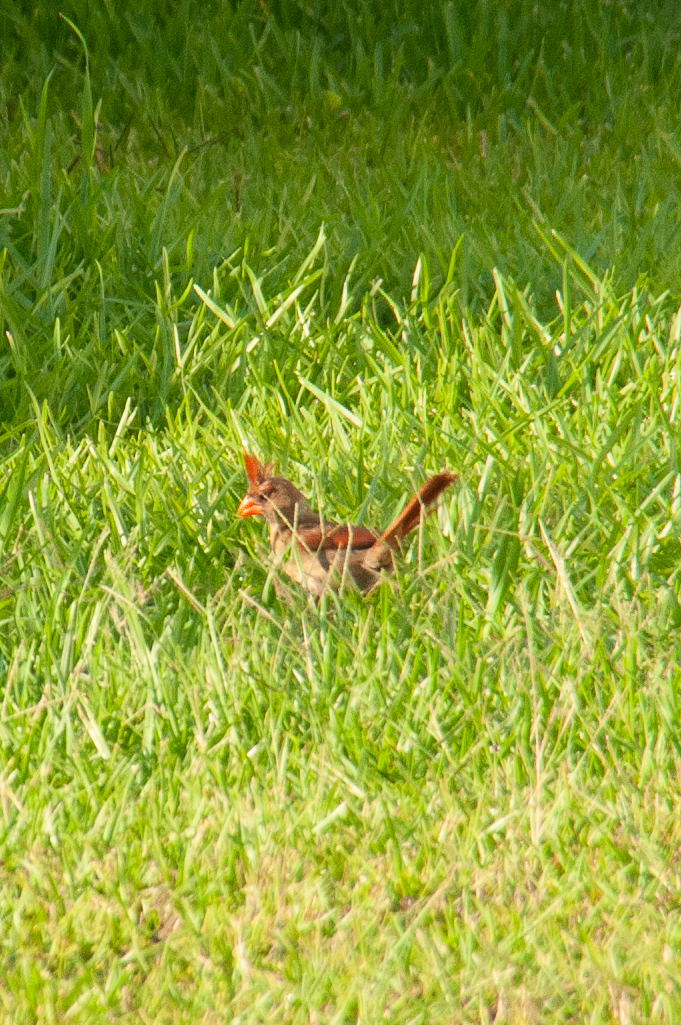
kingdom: Animalia
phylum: Chordata
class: Aves
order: Passeriformes
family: Cardinalidae
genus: Cardinalis
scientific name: Cardinalis cardinalis
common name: Northern cardinal
